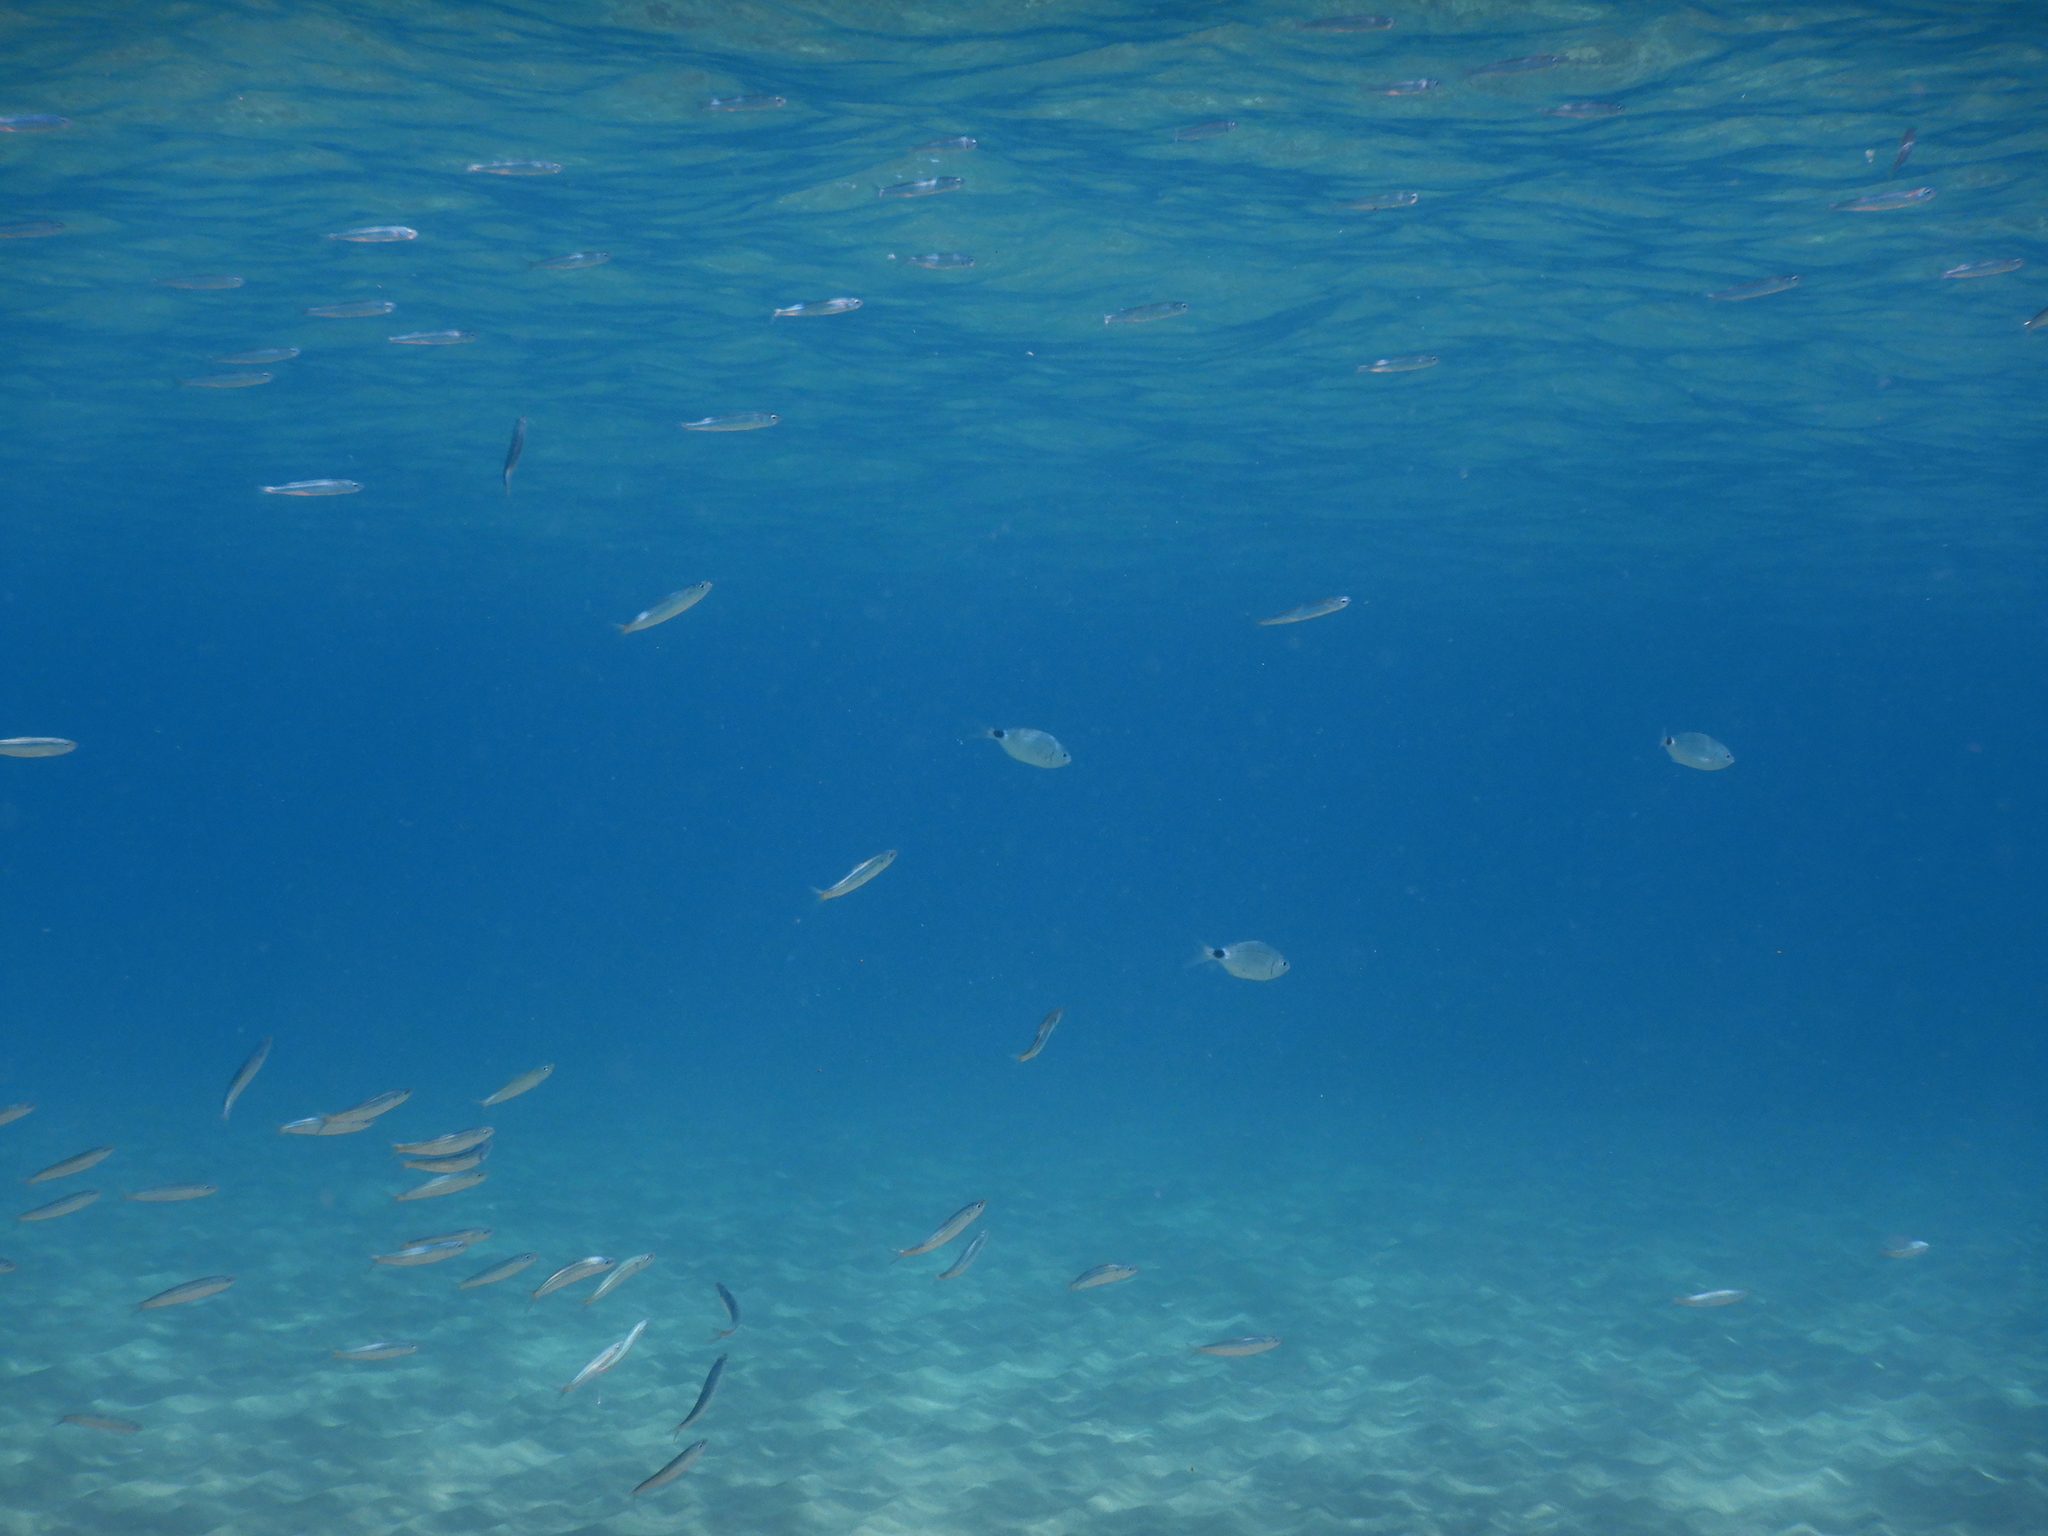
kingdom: Animalia
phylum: Chordata
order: Atheriniformes
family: Atherinidae
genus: Atherina
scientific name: Atherina
